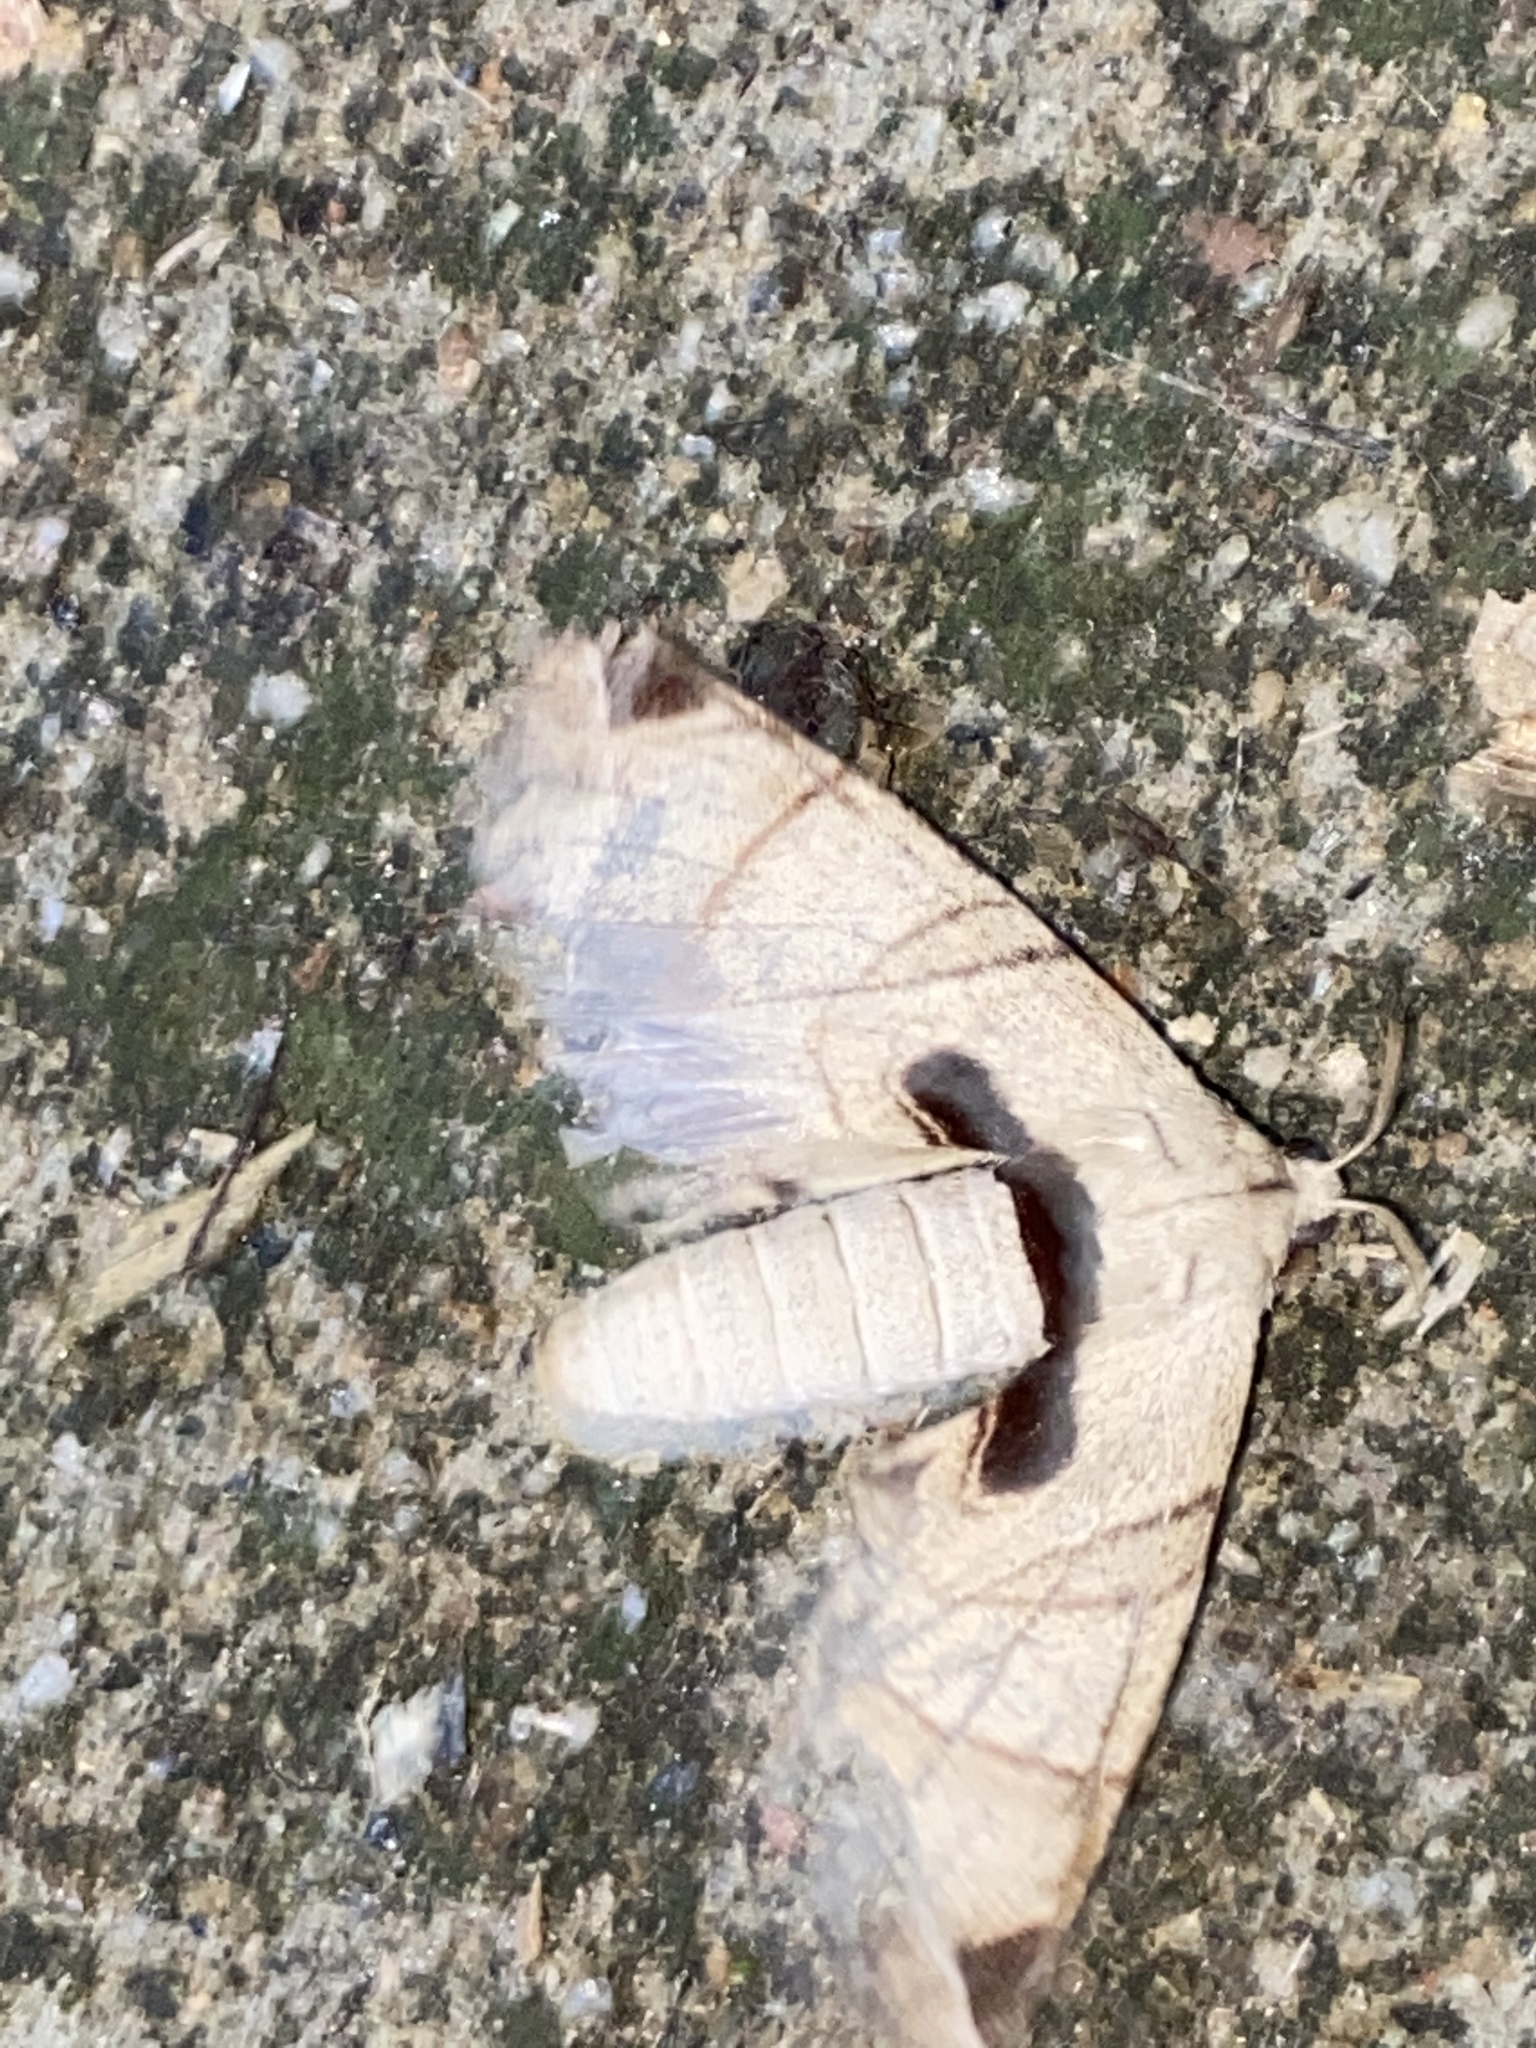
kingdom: Animalia
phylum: Arthropoda
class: Insecta
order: Lepidoptera
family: Apatelodidae
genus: Hygrochroa
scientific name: Hygrochroa Apatelodes pandarioides
